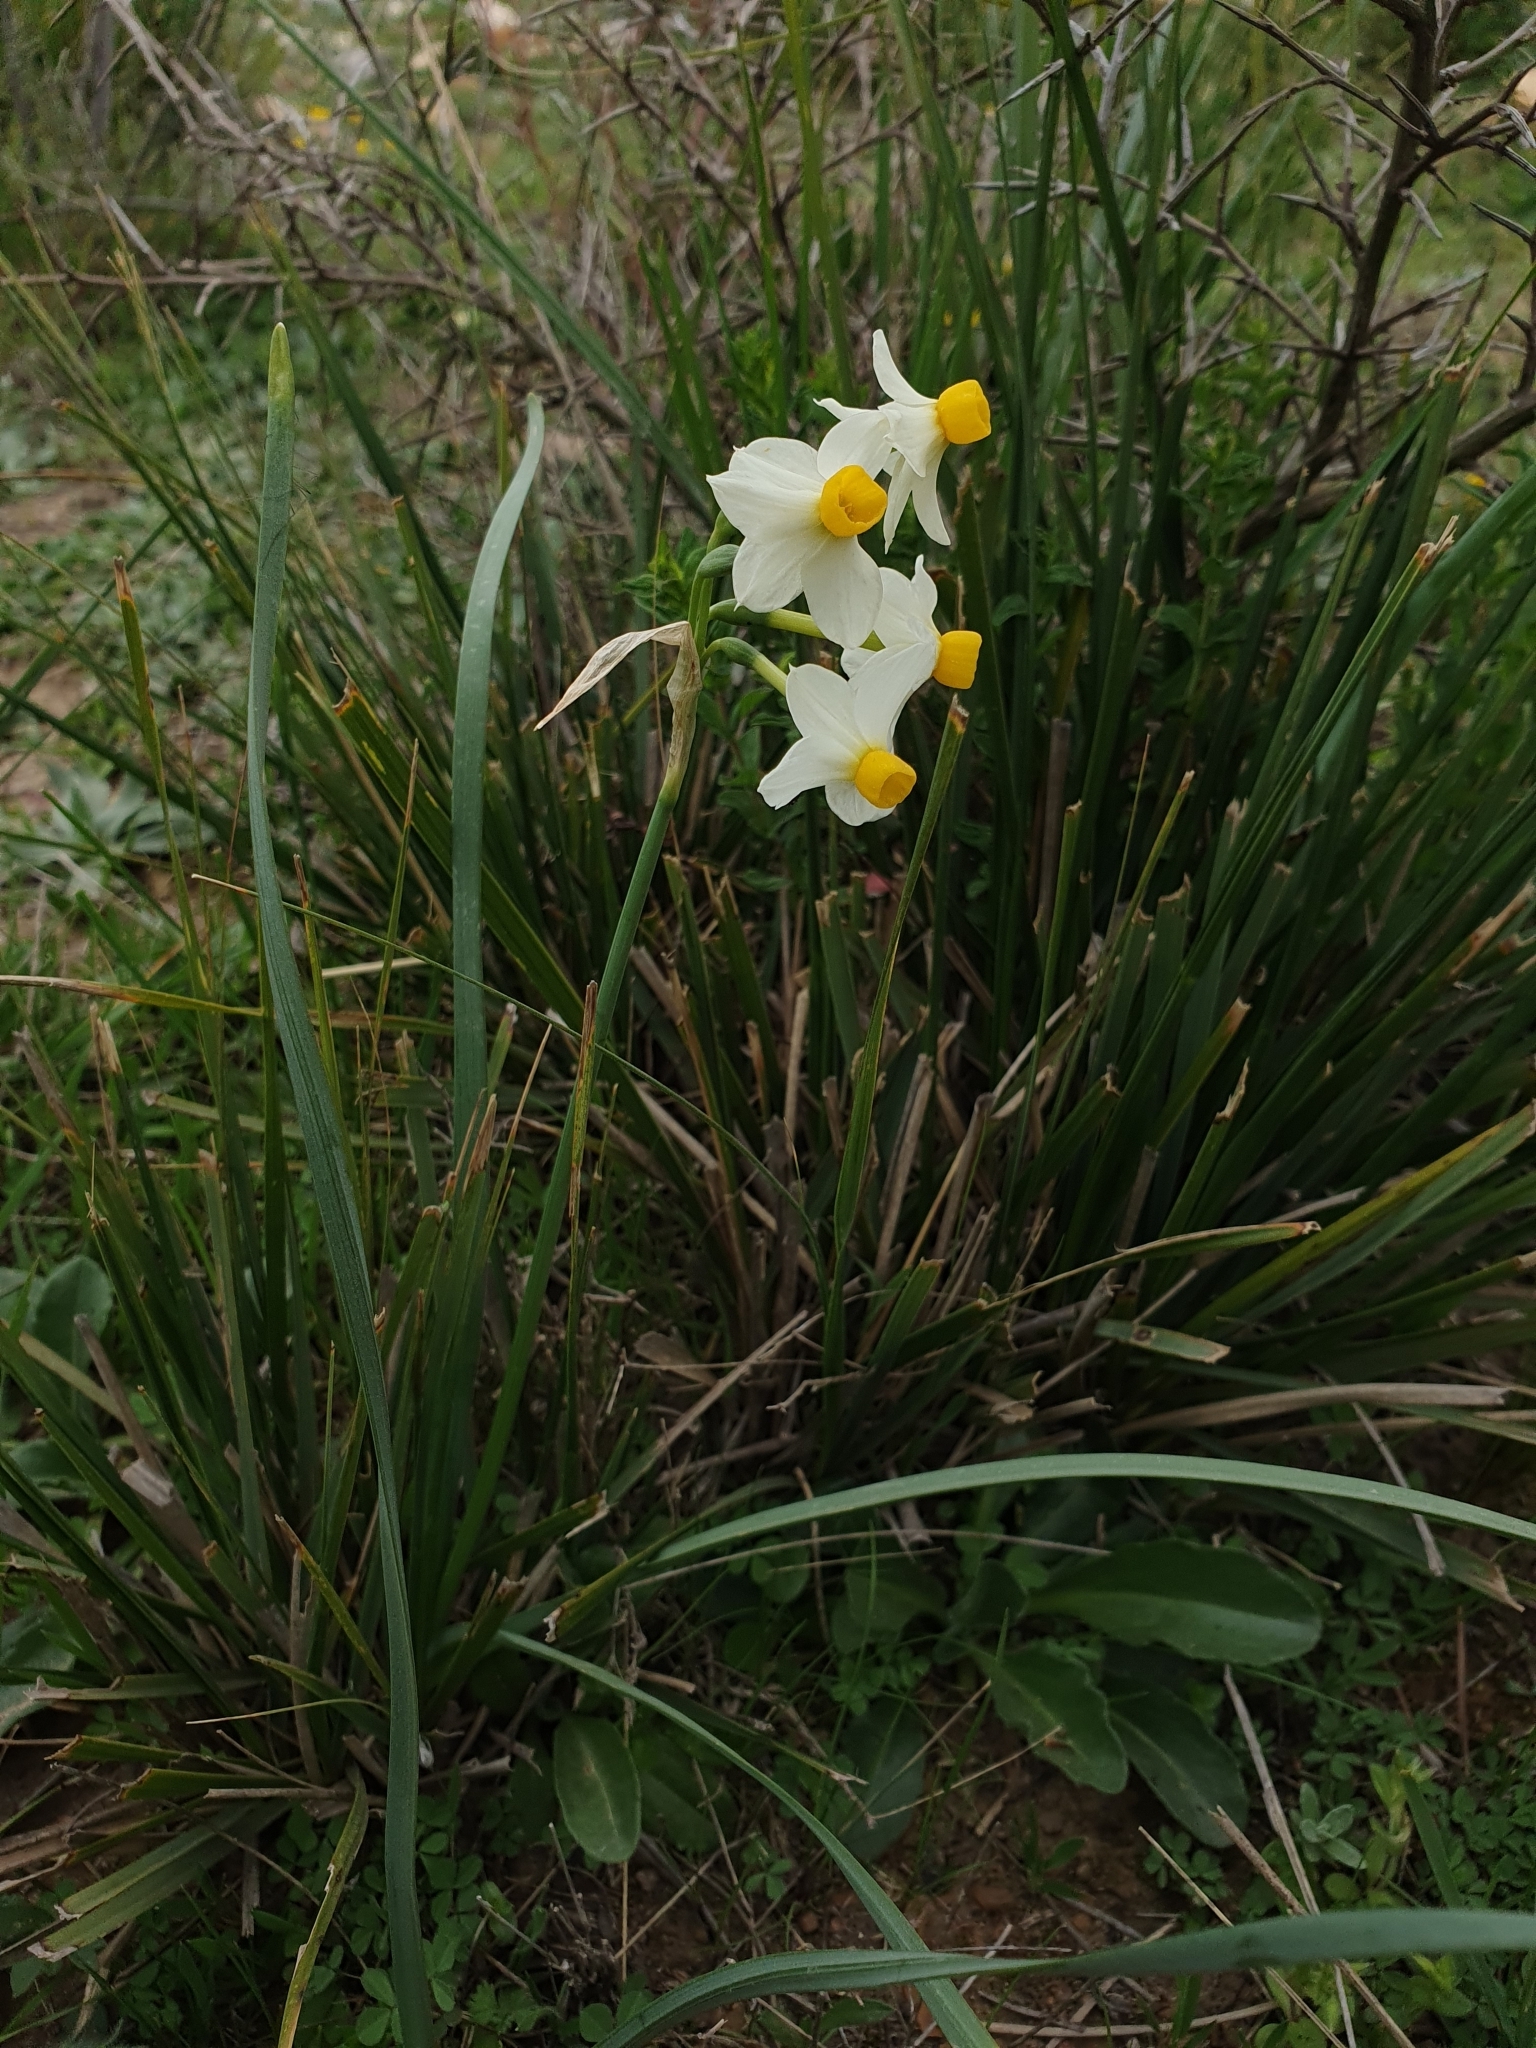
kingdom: Plantae
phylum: Tracheophyta
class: Liliopsida
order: Asparagales
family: Amaryllidaceae
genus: Narcissus
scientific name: Narcissus tazetta
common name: Bunch-flowered daffodil
